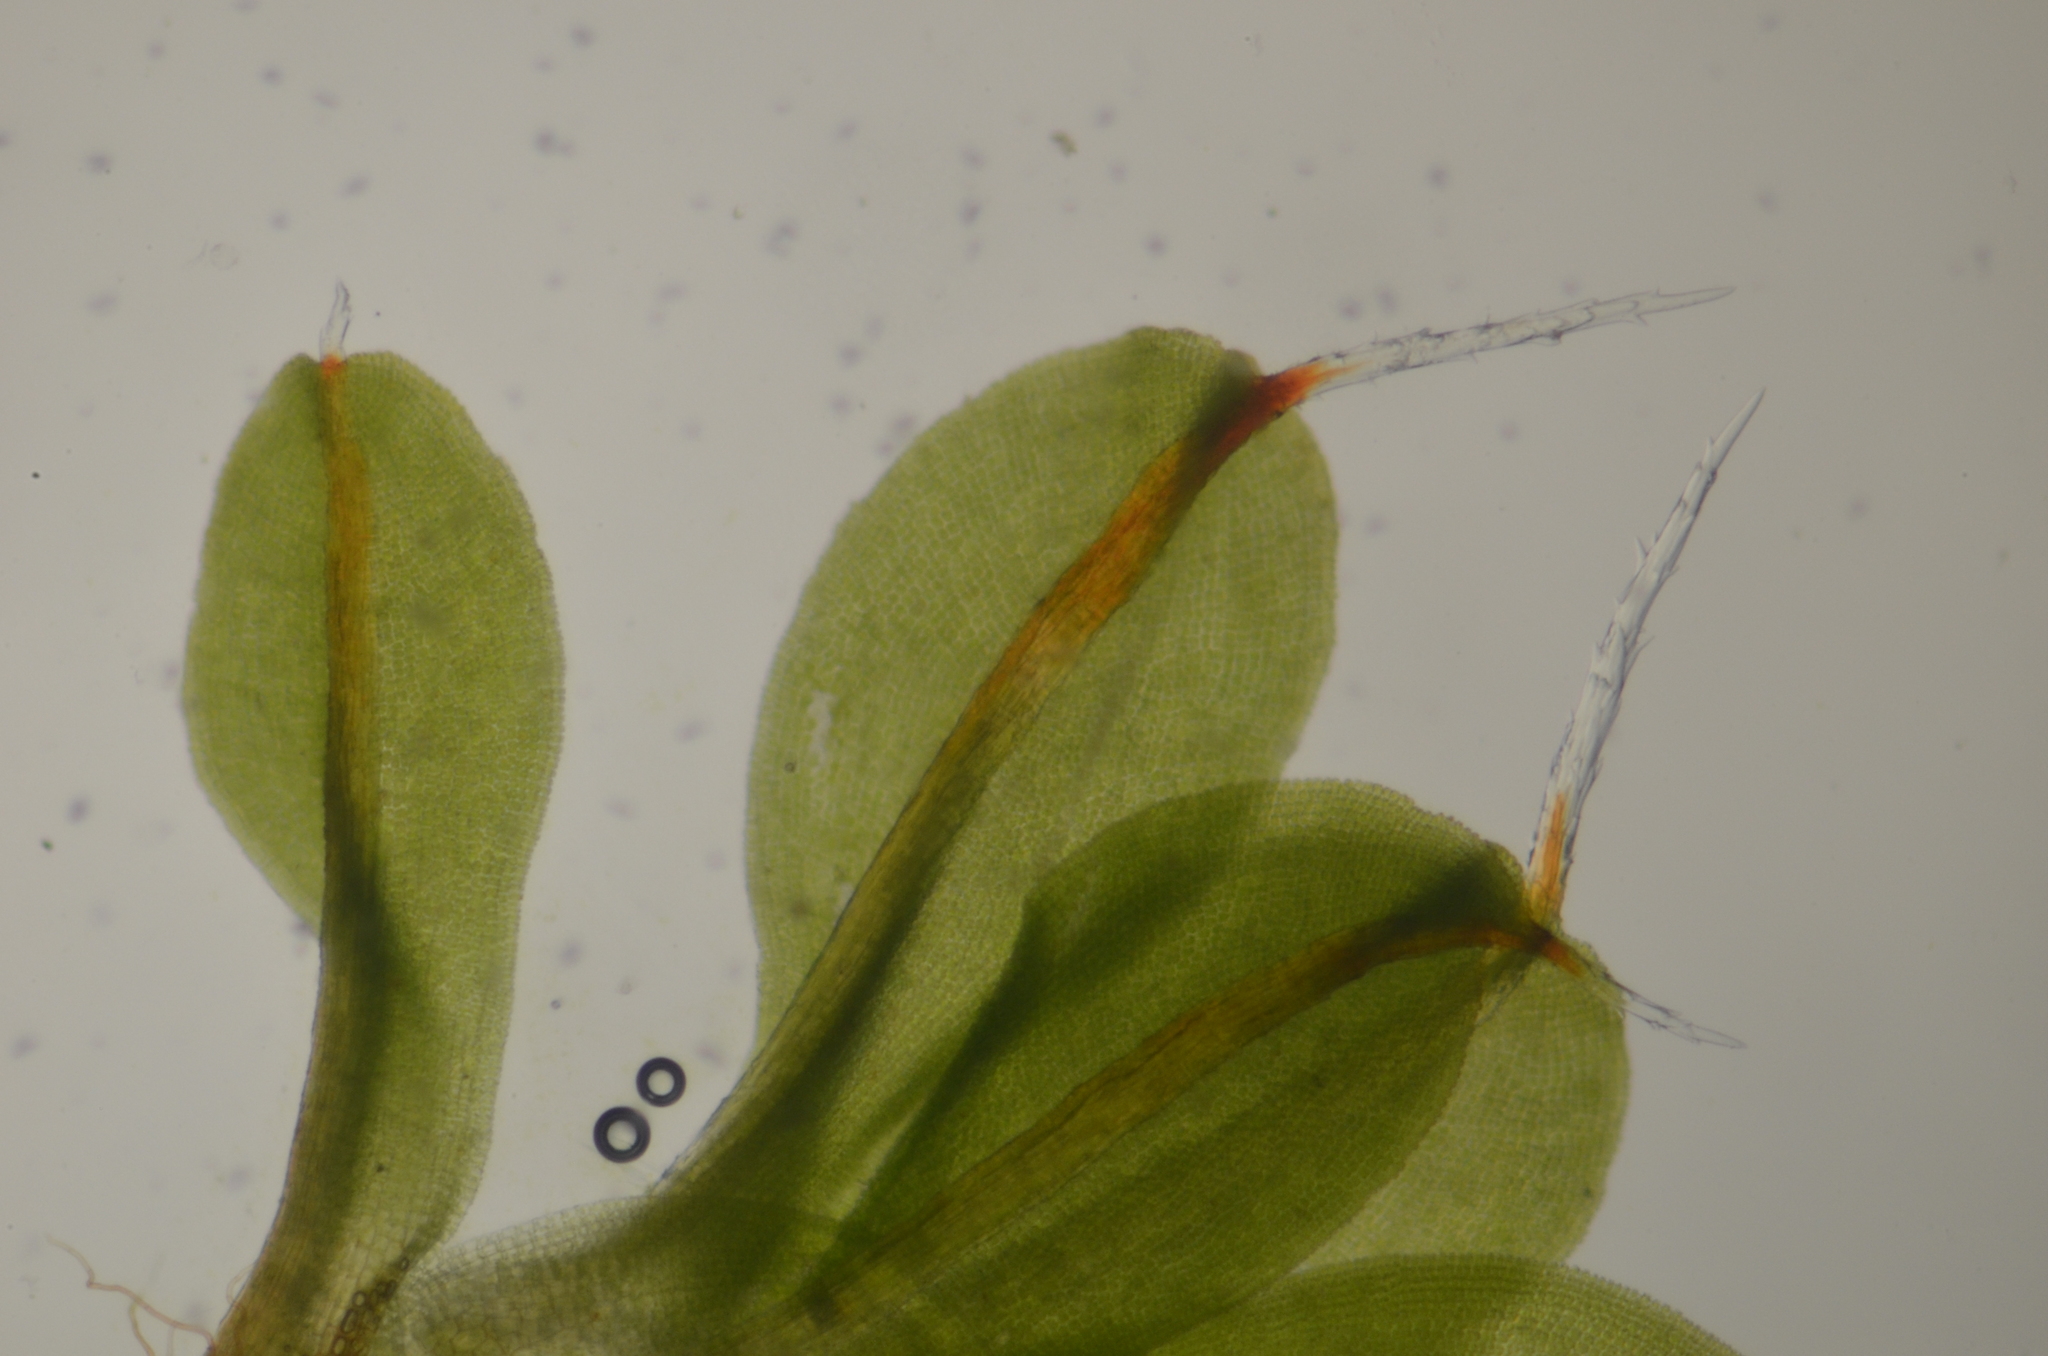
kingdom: Plantae
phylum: Bryophyta
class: Bryopsida
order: Pottiales
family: Pottiaceae
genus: Syntrichia
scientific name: Syntrichia laevipila
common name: Small hairy screw-moss
